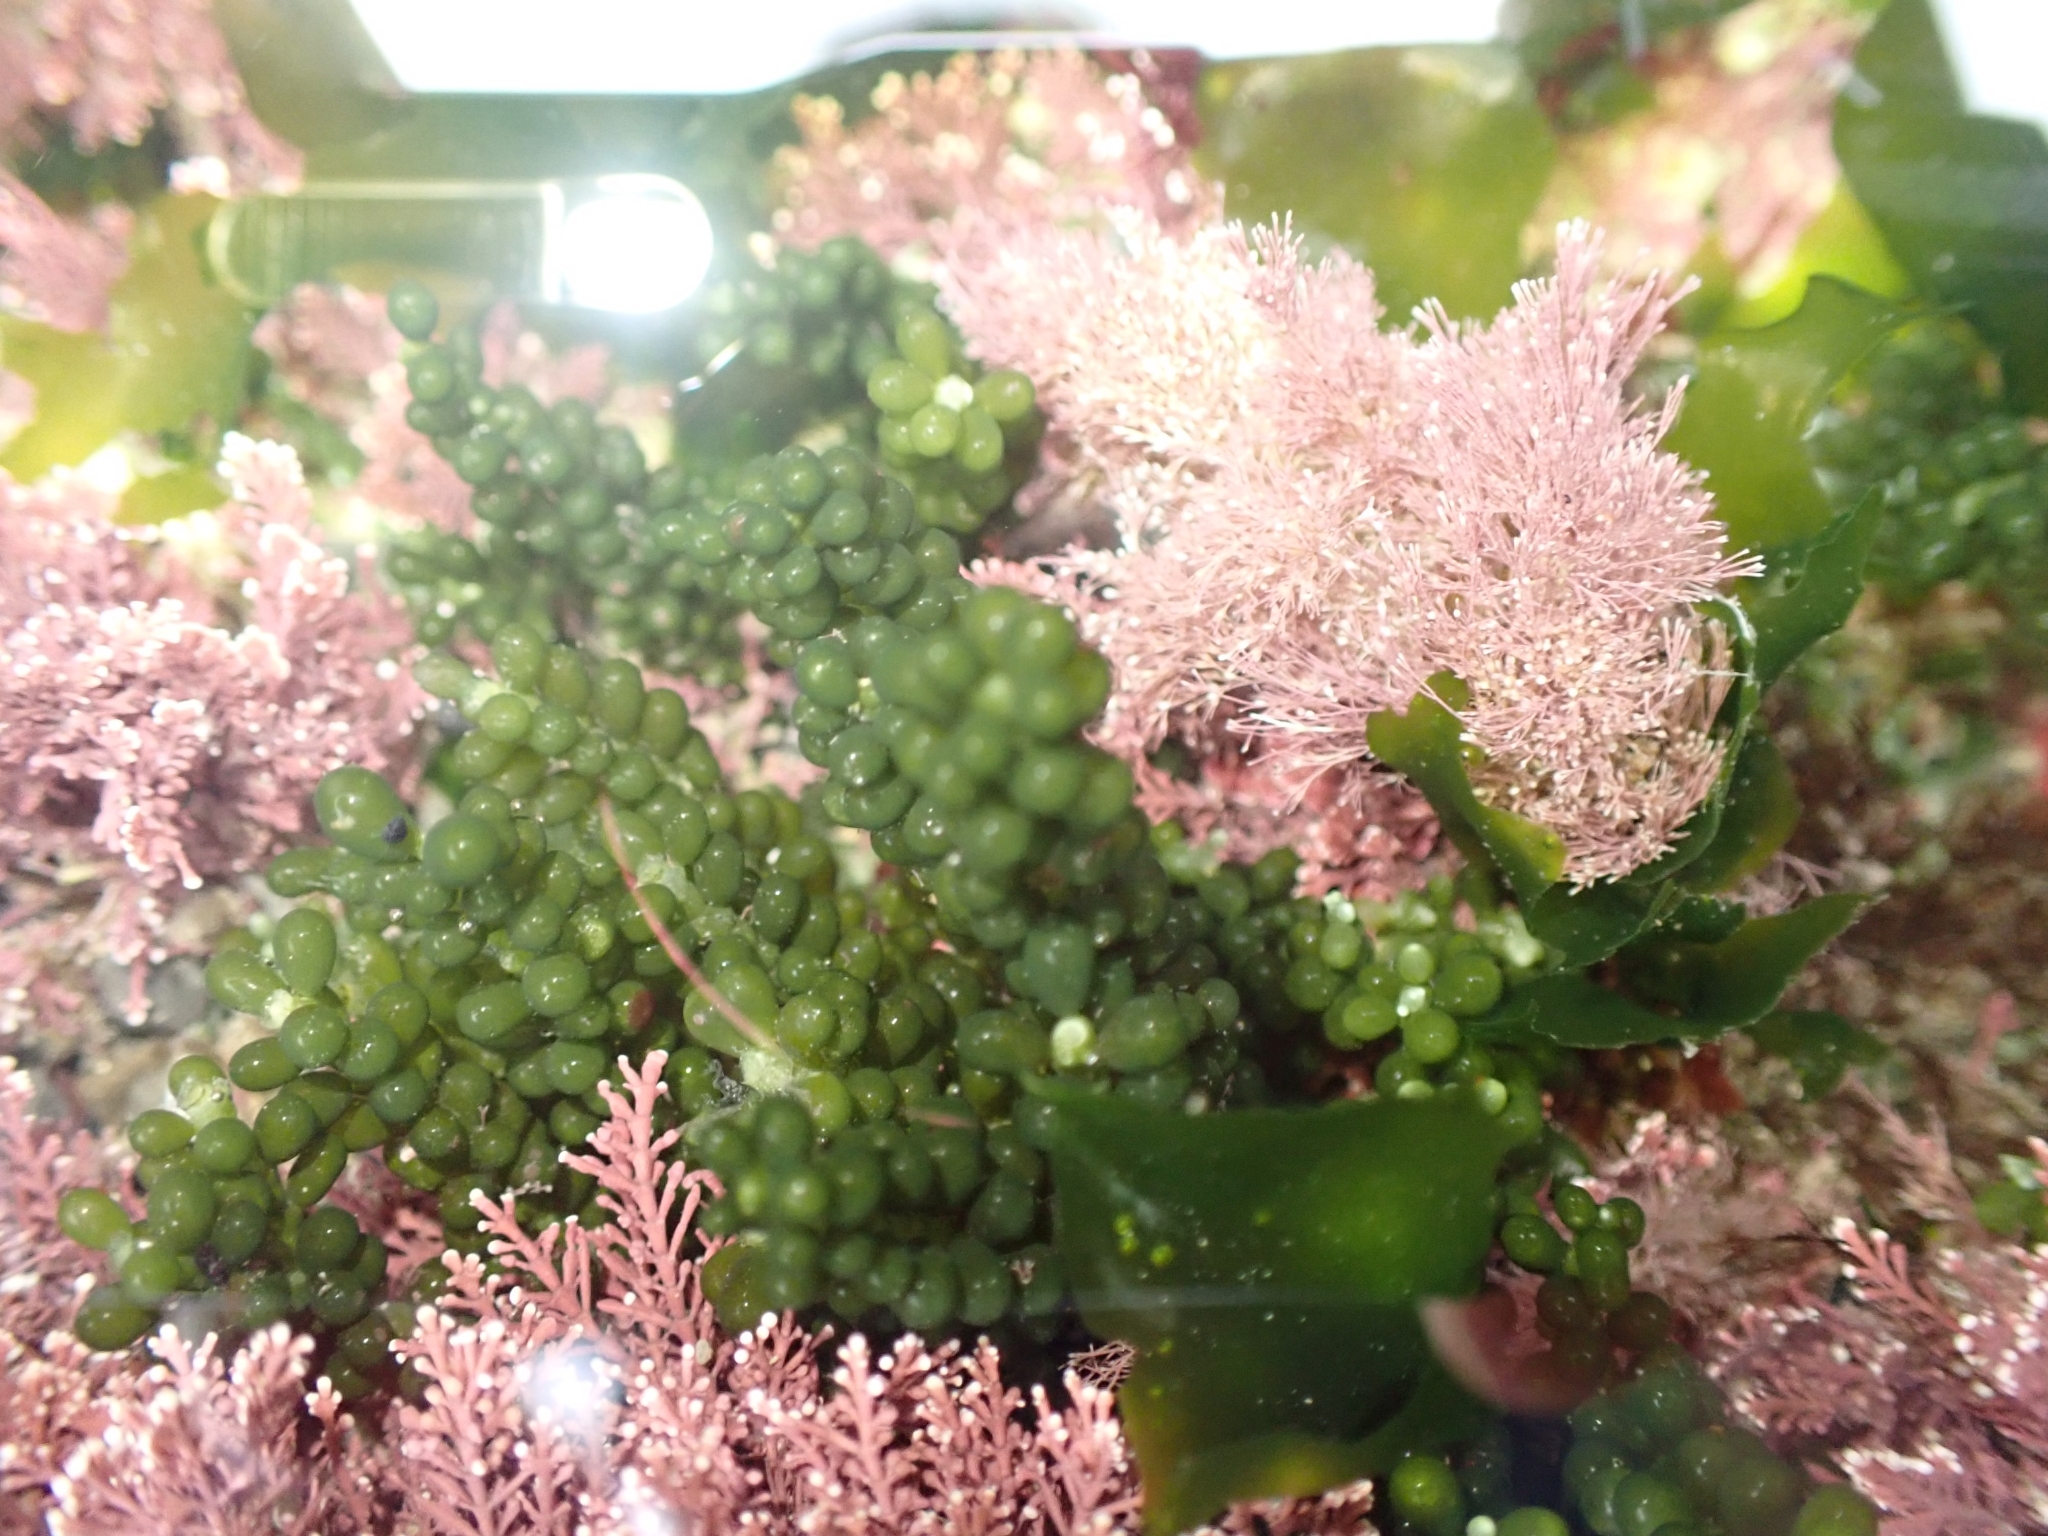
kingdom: Plantae
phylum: Chlorophyta
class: Ulvophyceae
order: Bryopsidales
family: Caulerpaceae
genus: Caulerpa
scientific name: Caulerpa geminata
